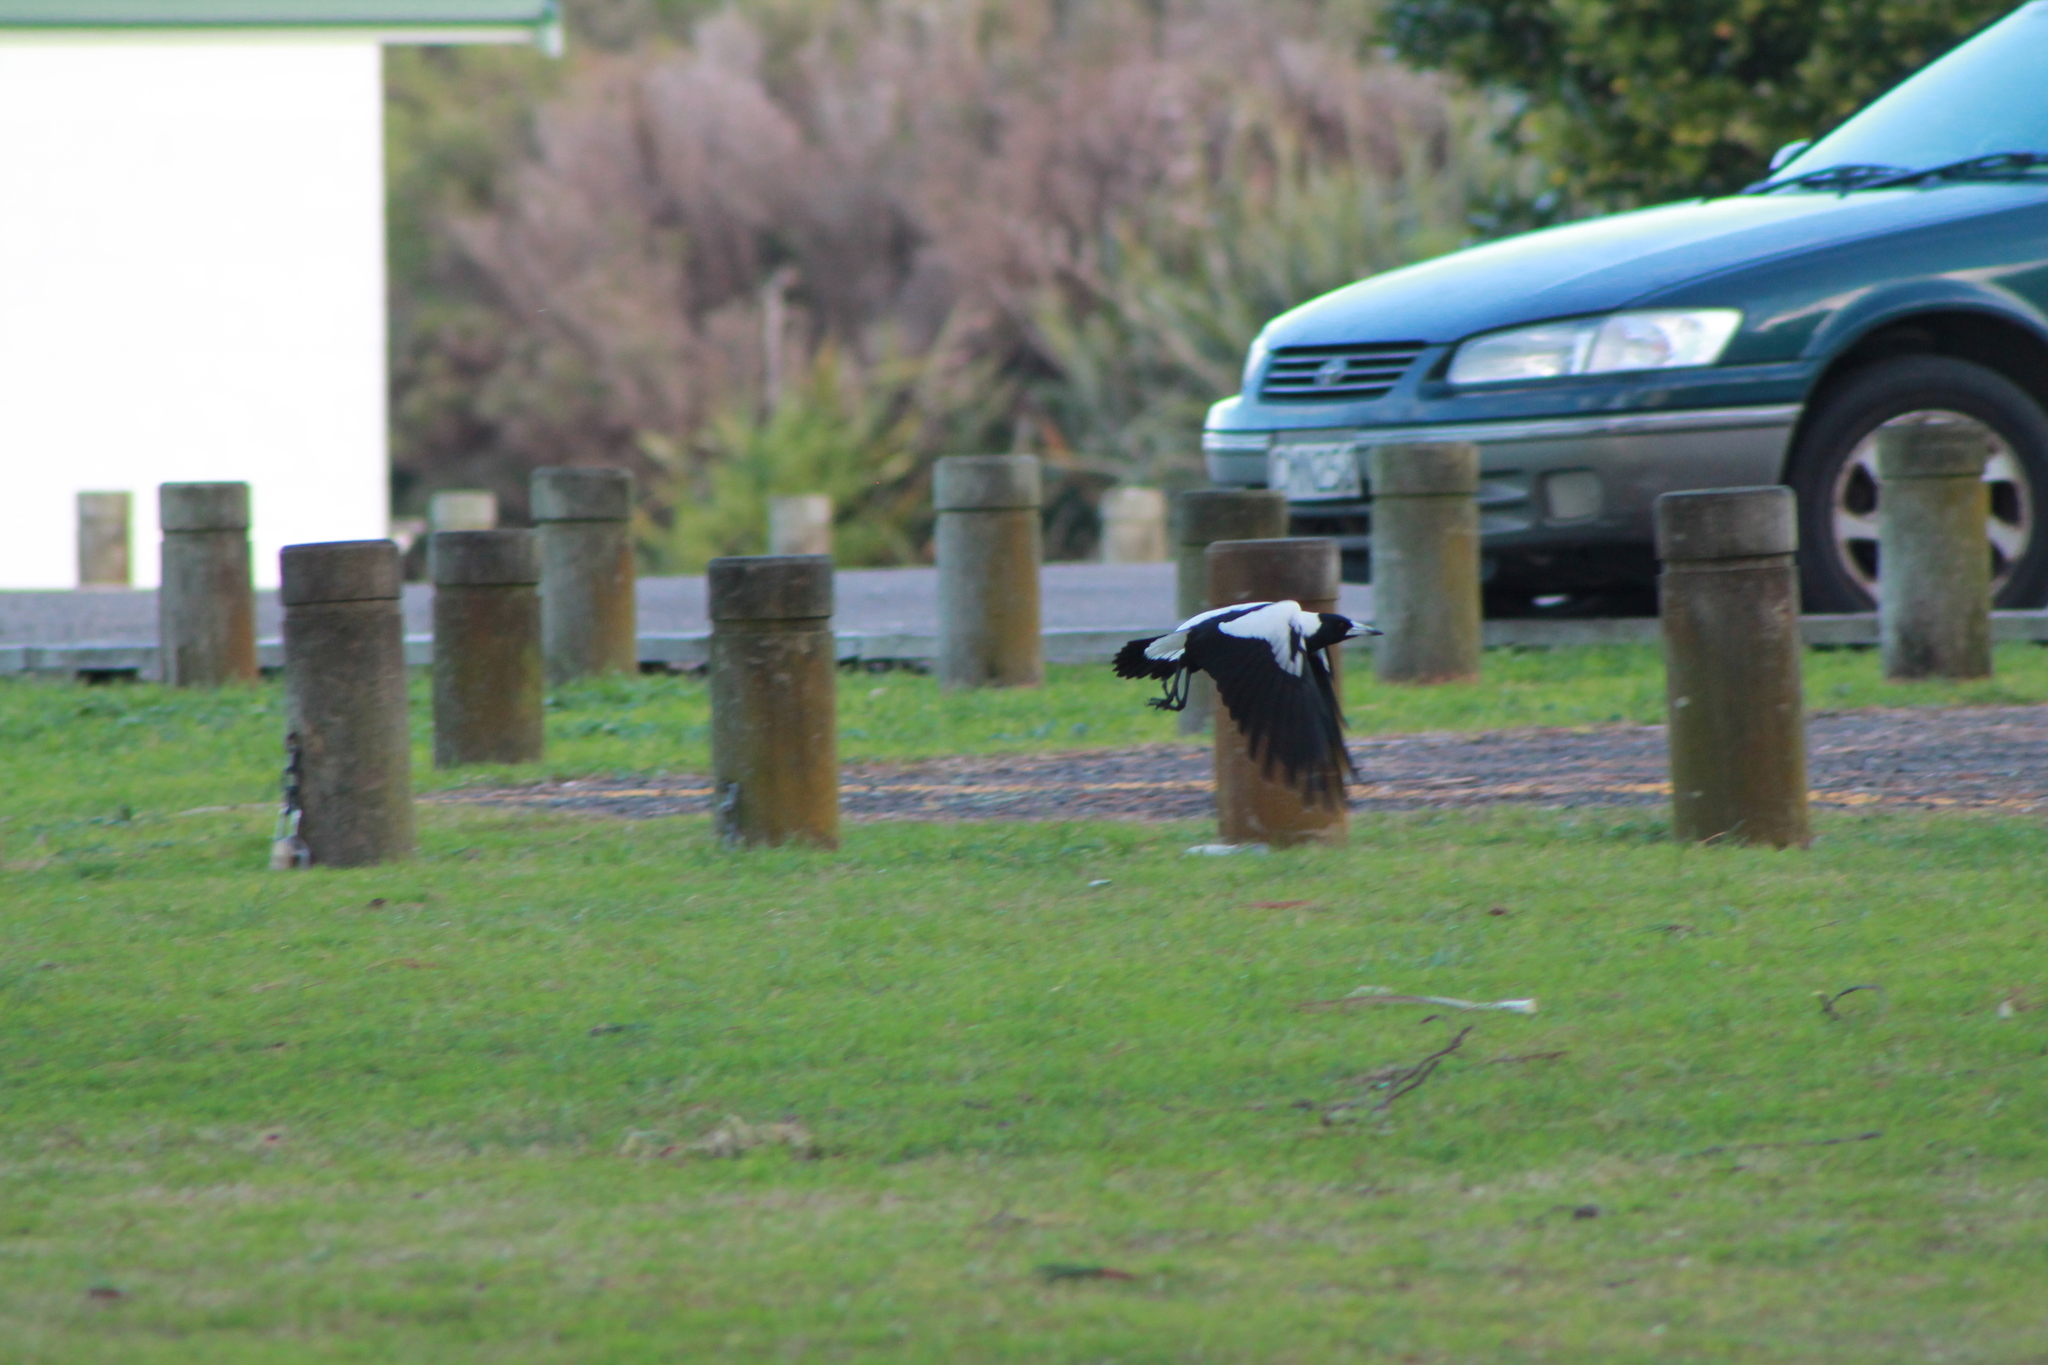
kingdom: Animalia
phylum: Chordata
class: Aves
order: Passeriformes
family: Cracticidae
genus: Gymnorhina
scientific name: Gymnorhina tibicen
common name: Australian magpie
